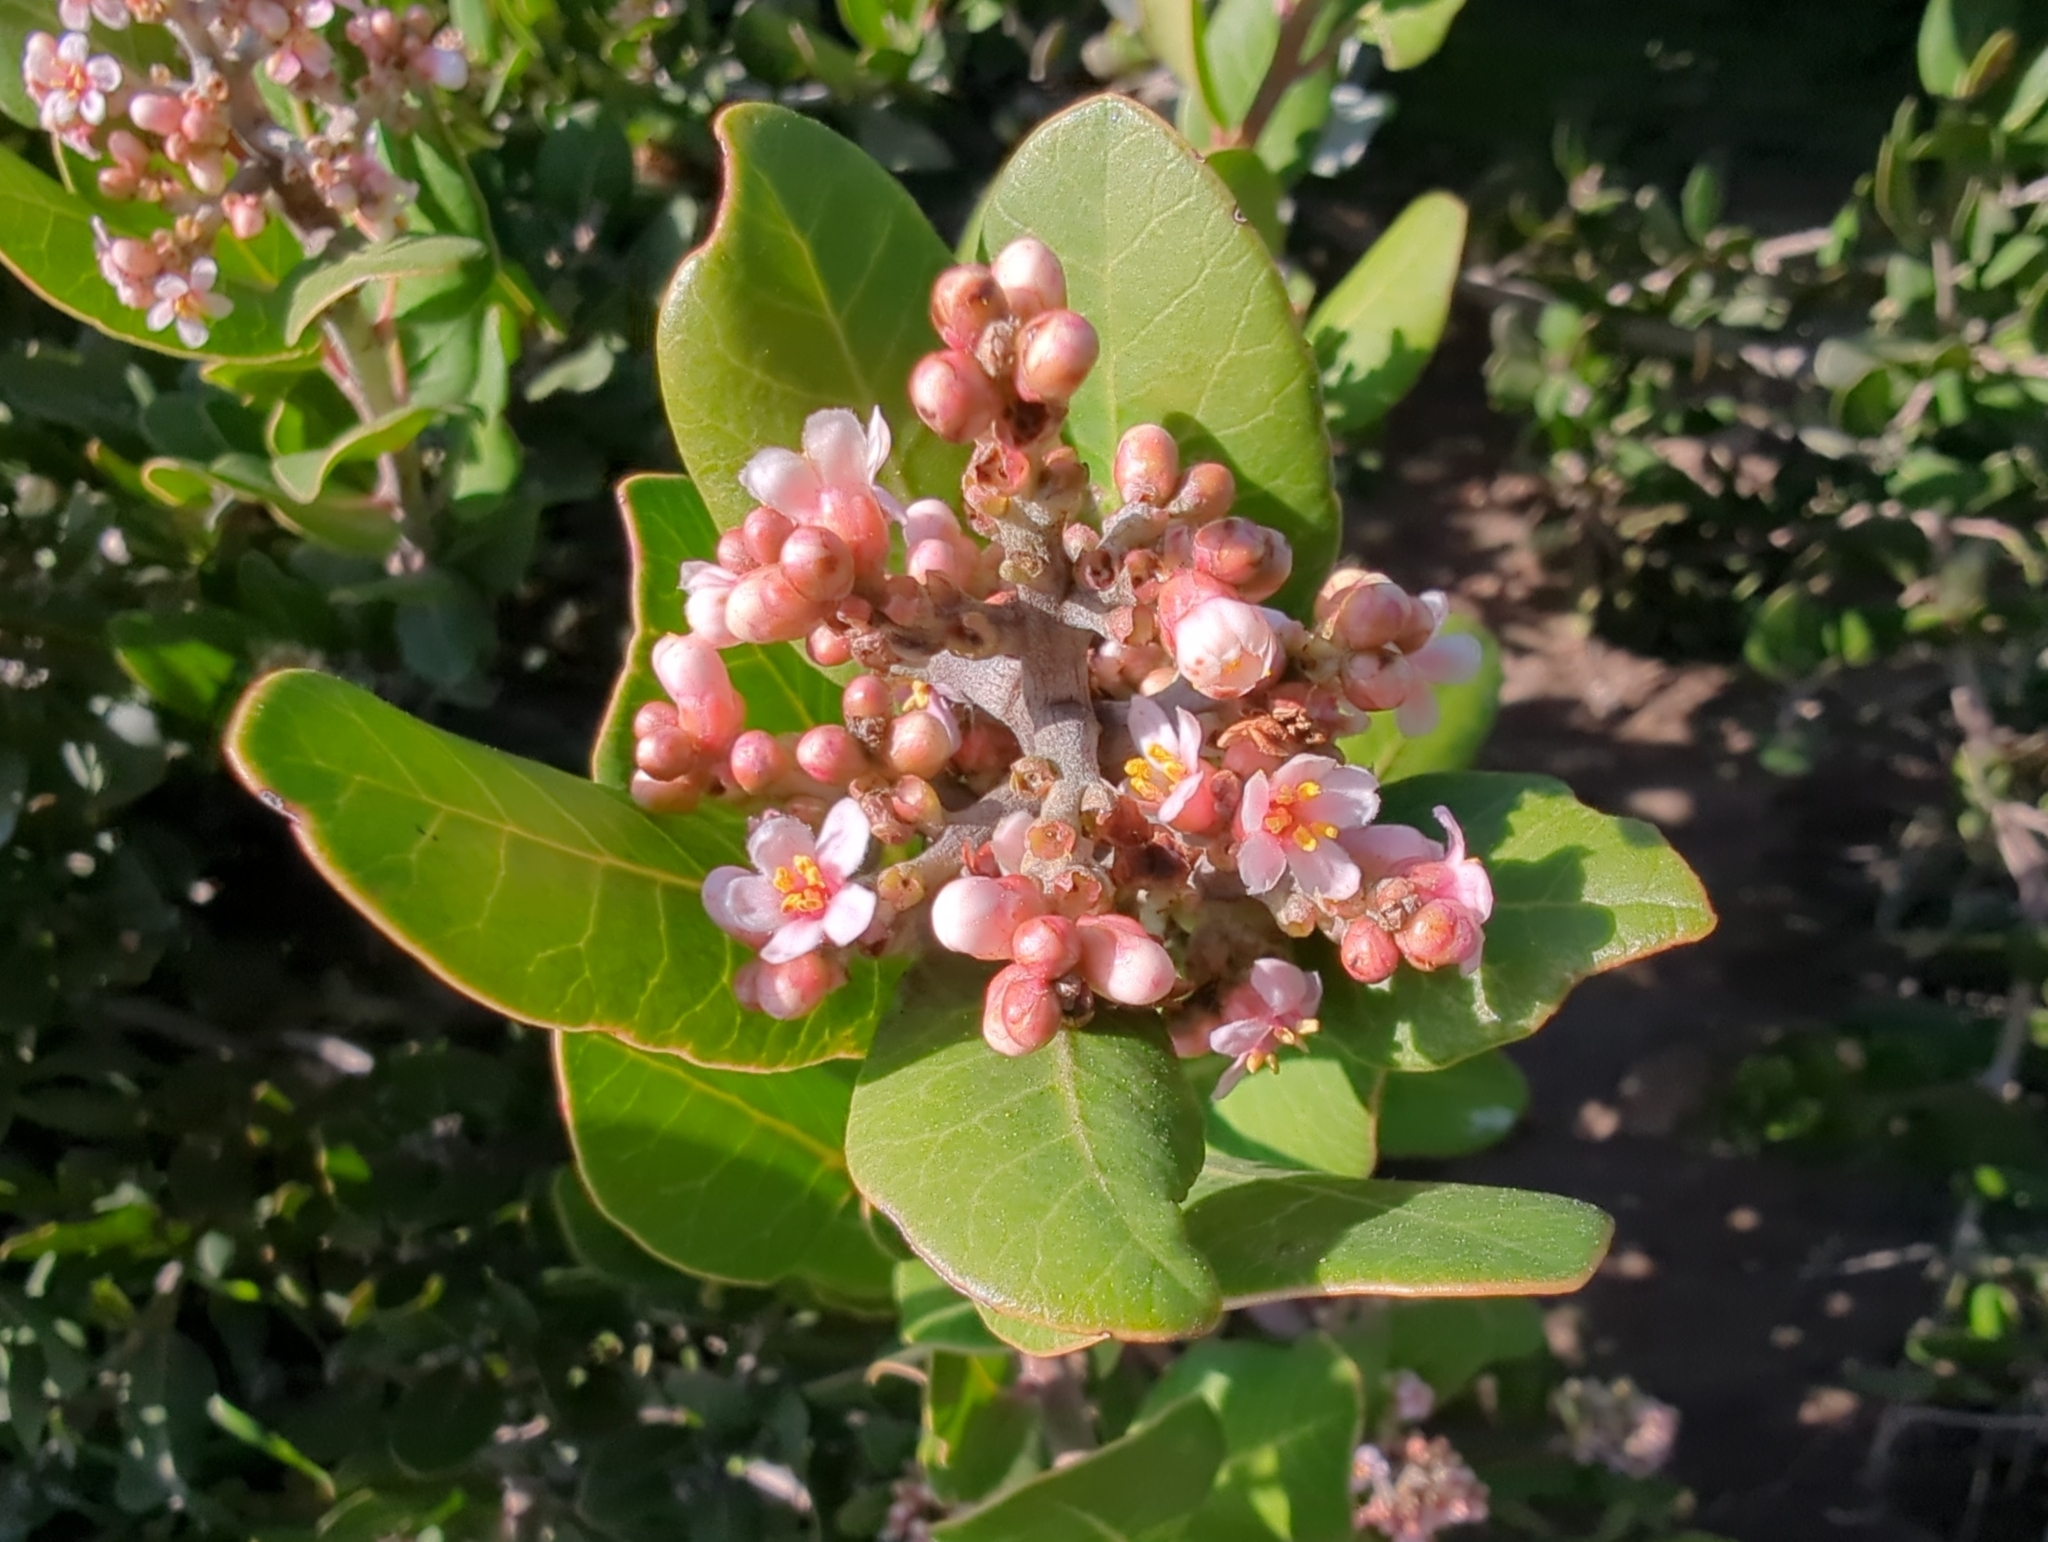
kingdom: Plantae
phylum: Tracheophyta
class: Magnoliopsida
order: Sapindales
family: Anacardiaceae
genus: Rhus
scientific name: Rhus integrifolia
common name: Lemonade sumac
